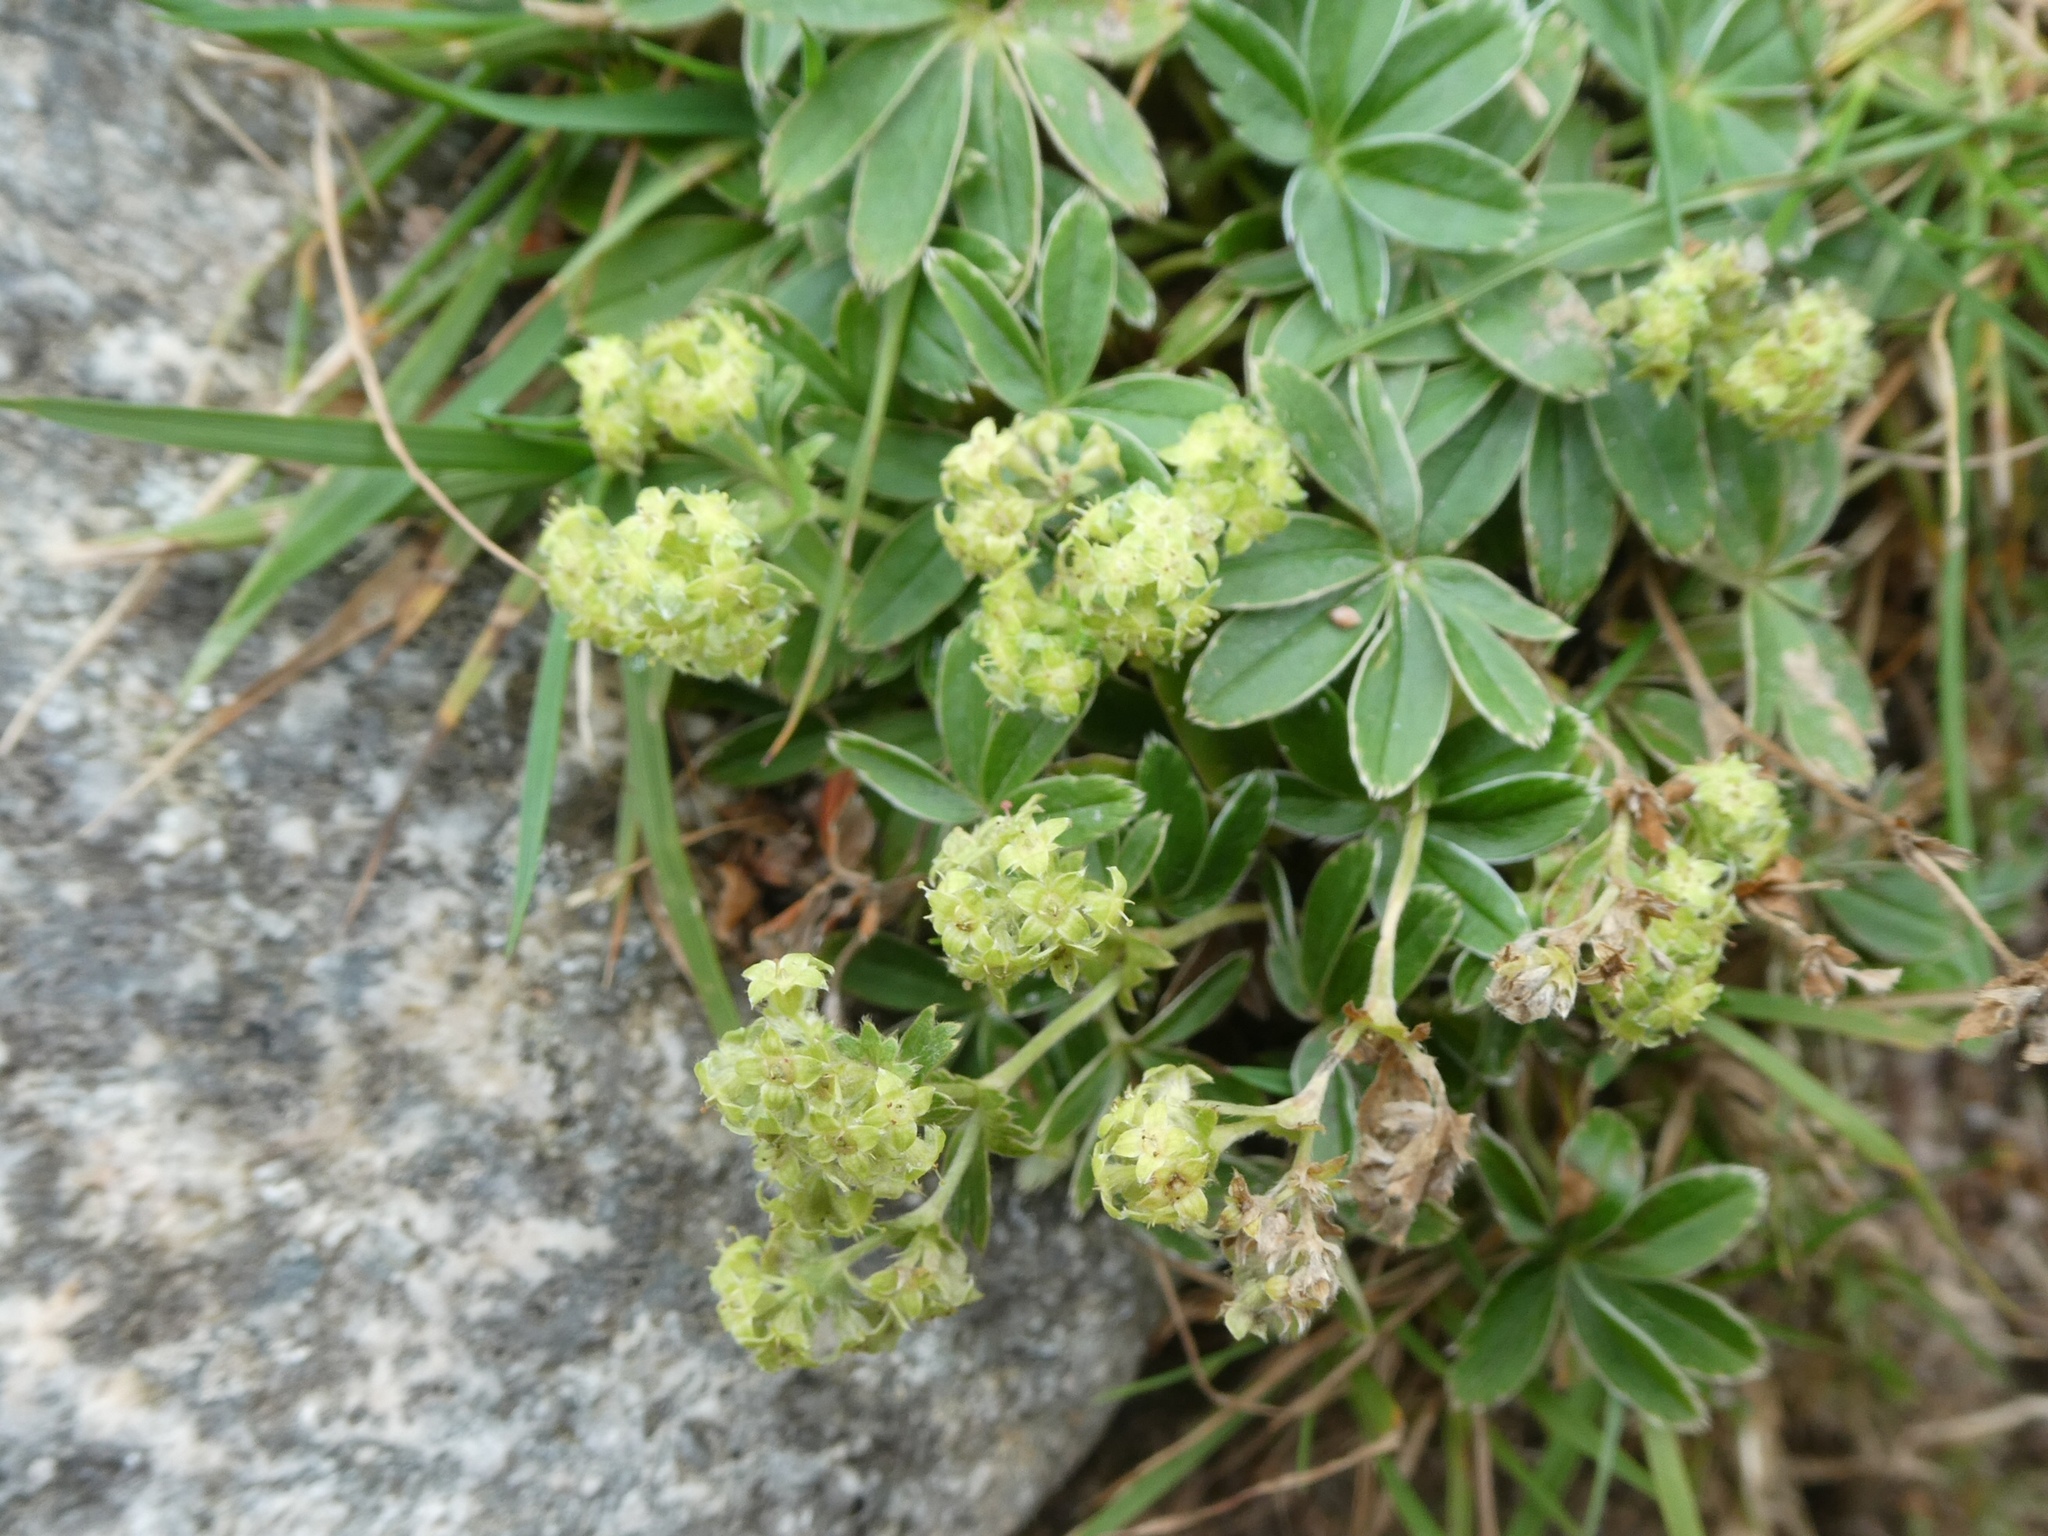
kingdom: Plantae
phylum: Tracheophyta
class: Magnoliopsida
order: Rosales
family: Rosaceae
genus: Alchemilla
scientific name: Alchemilla alpina
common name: Alpine lady's-mantle
